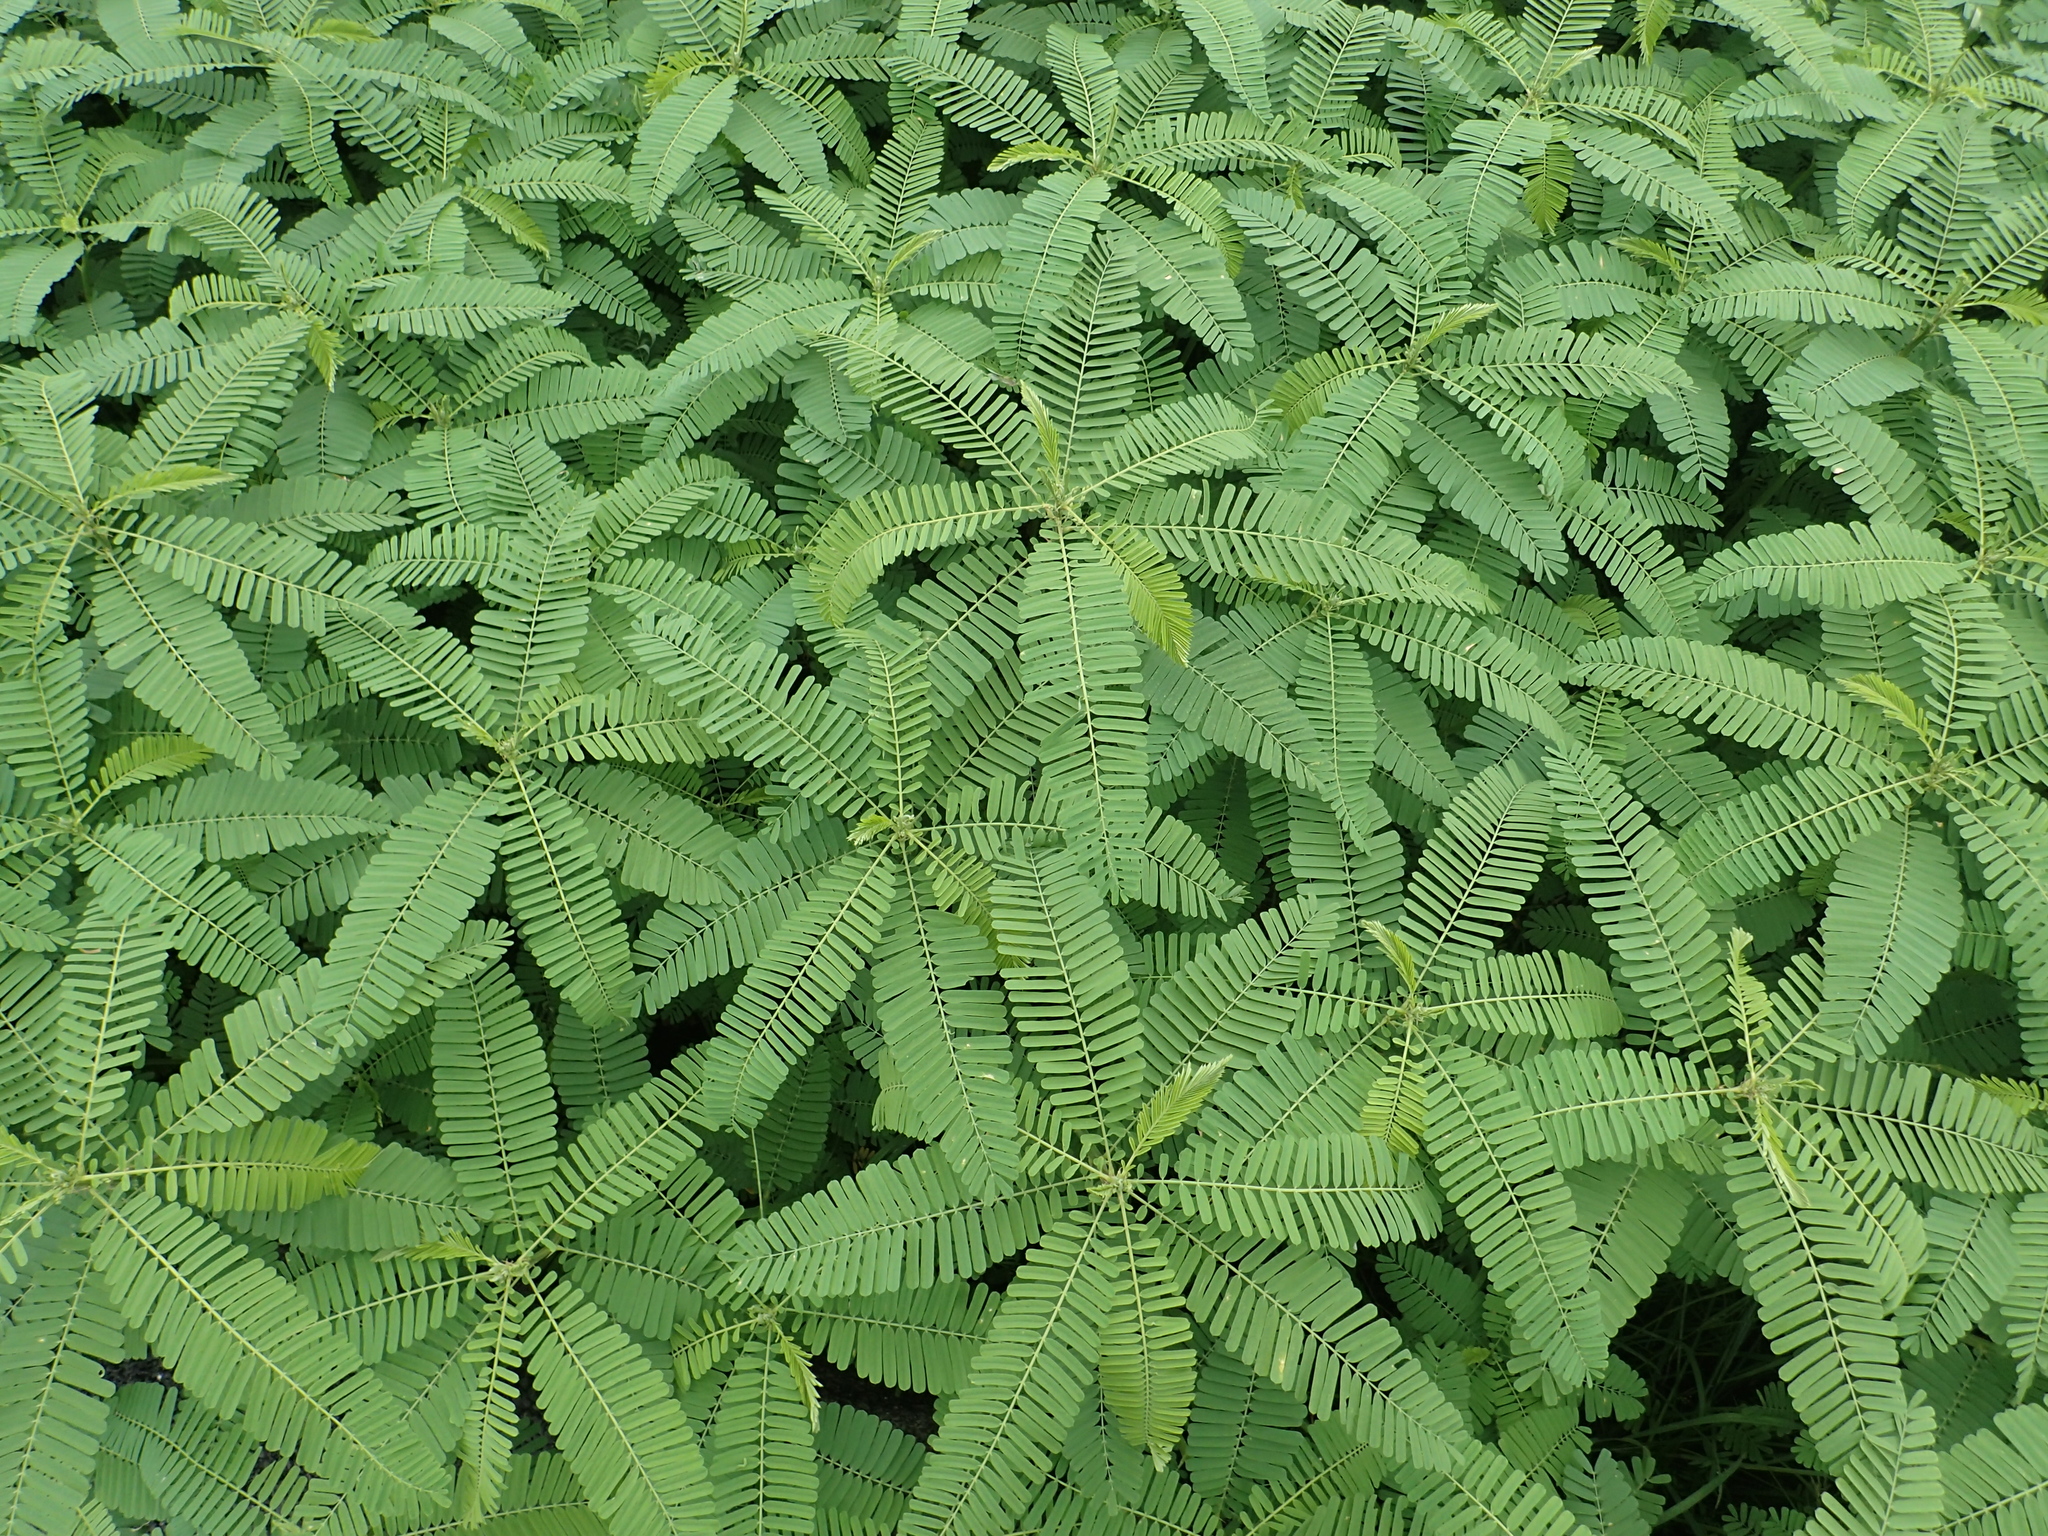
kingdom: Plantae
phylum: Tracheophyta
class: Magnoliopsida
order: Fabales
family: Fabaceae
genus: Sesbania
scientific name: Sesbania cannabina
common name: Canicha
